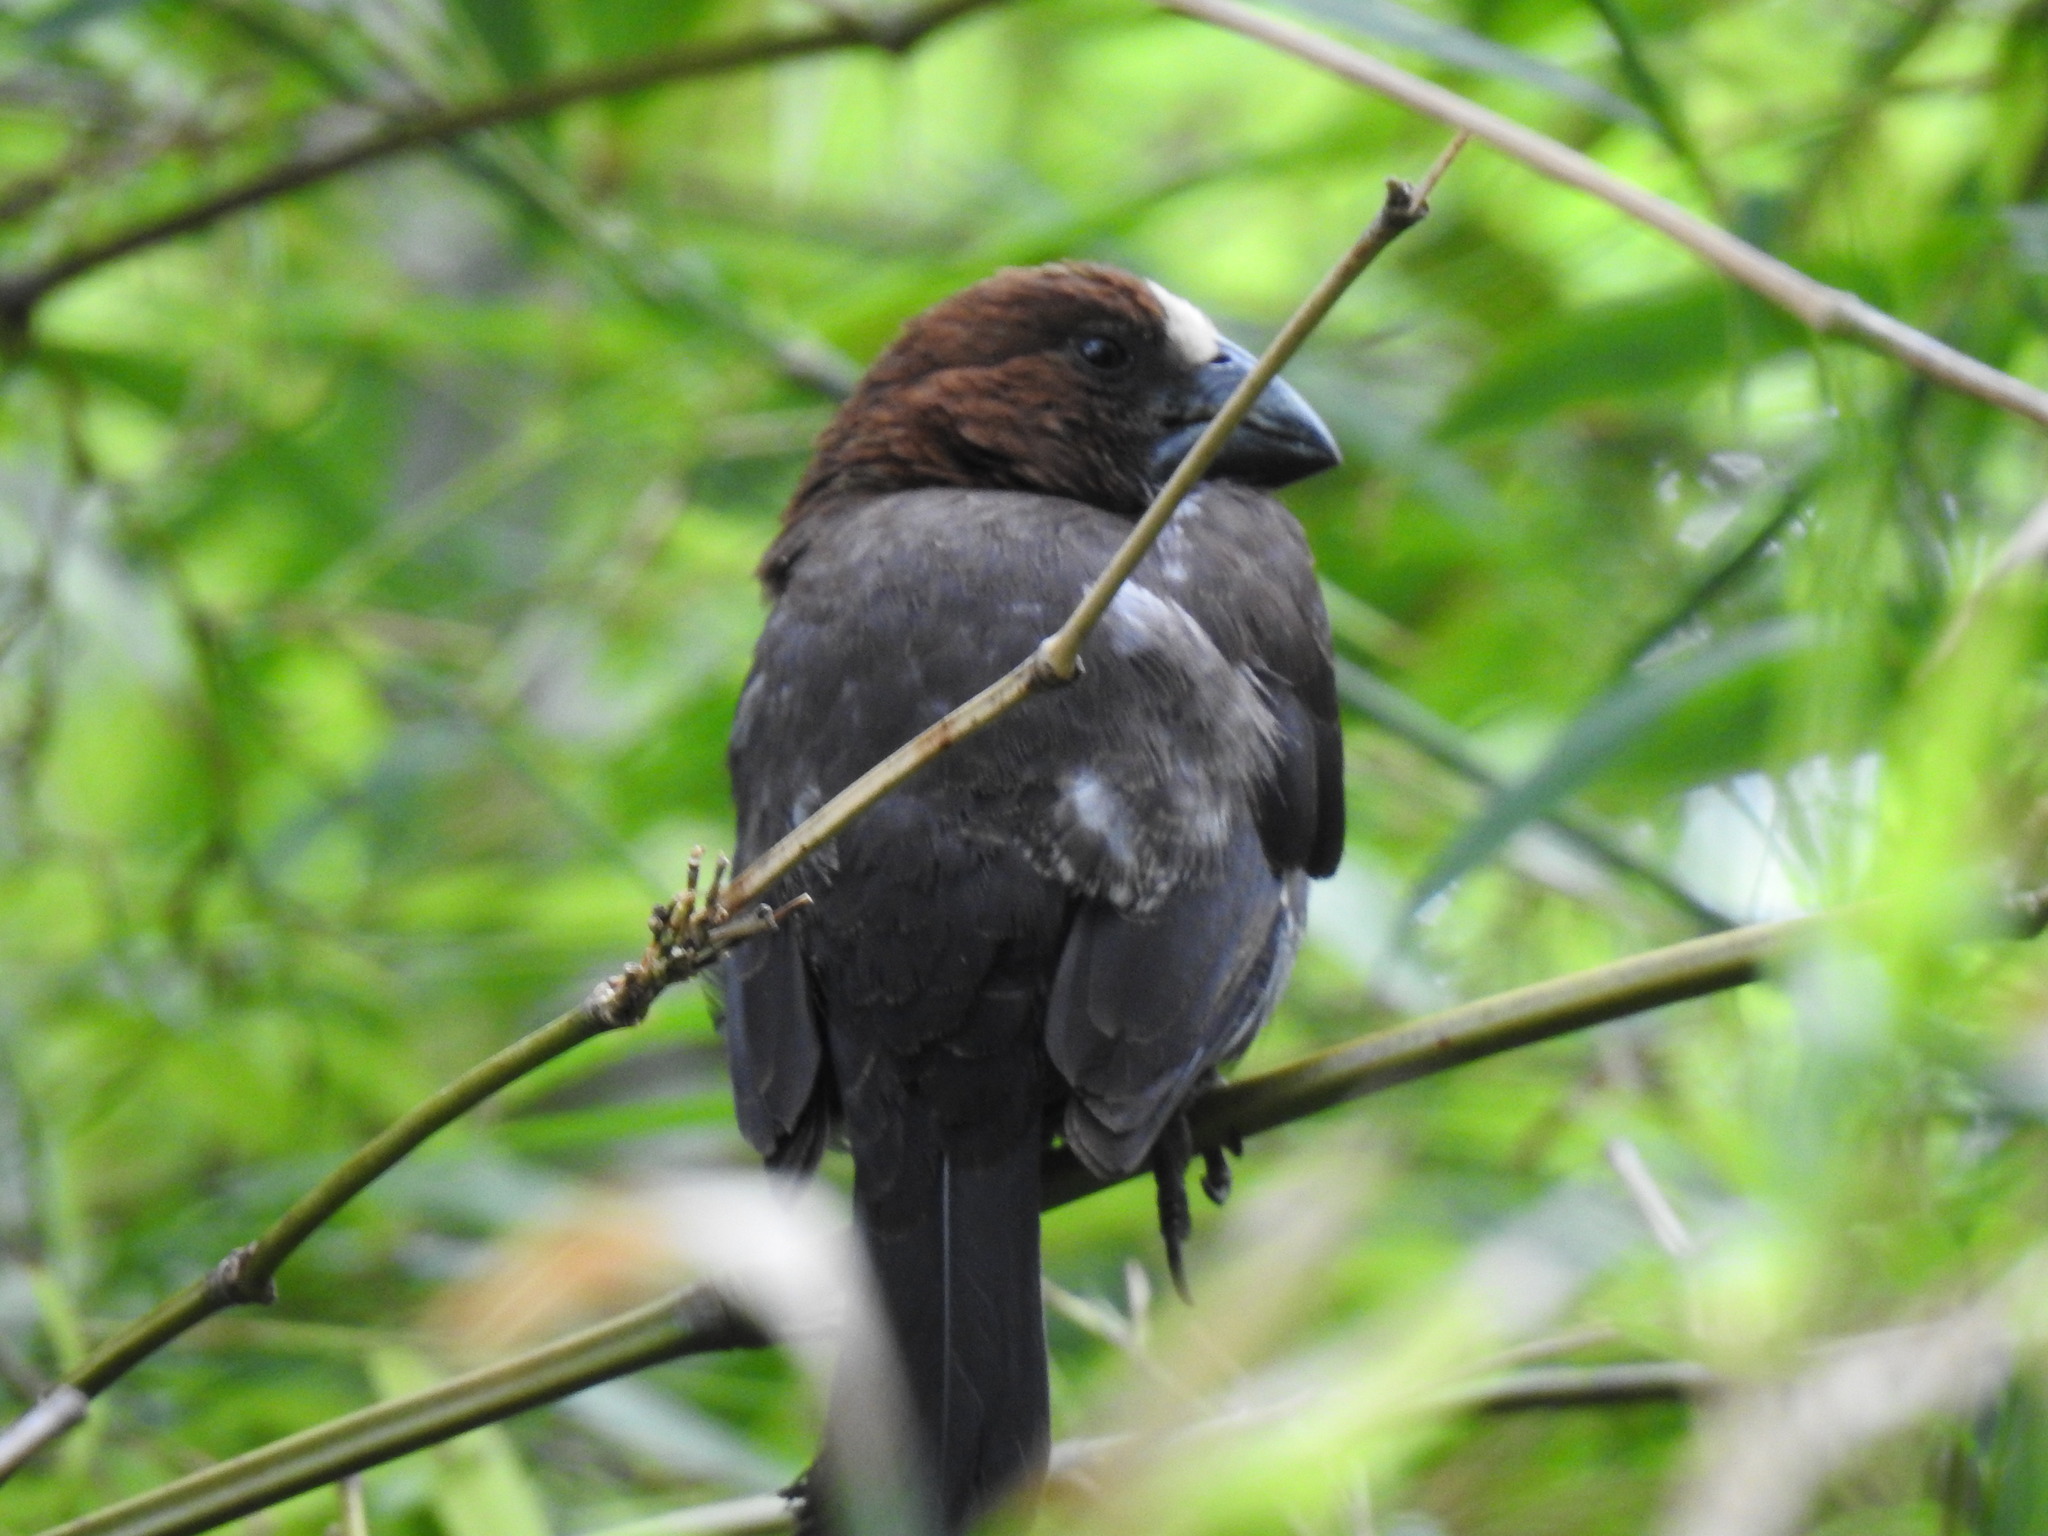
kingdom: Animalia
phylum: Chordata
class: Aves
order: Passeriformes
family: Ploceidae
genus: Amblyospiza
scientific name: Amblyospiza albifrons
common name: Thick-billed weaver
